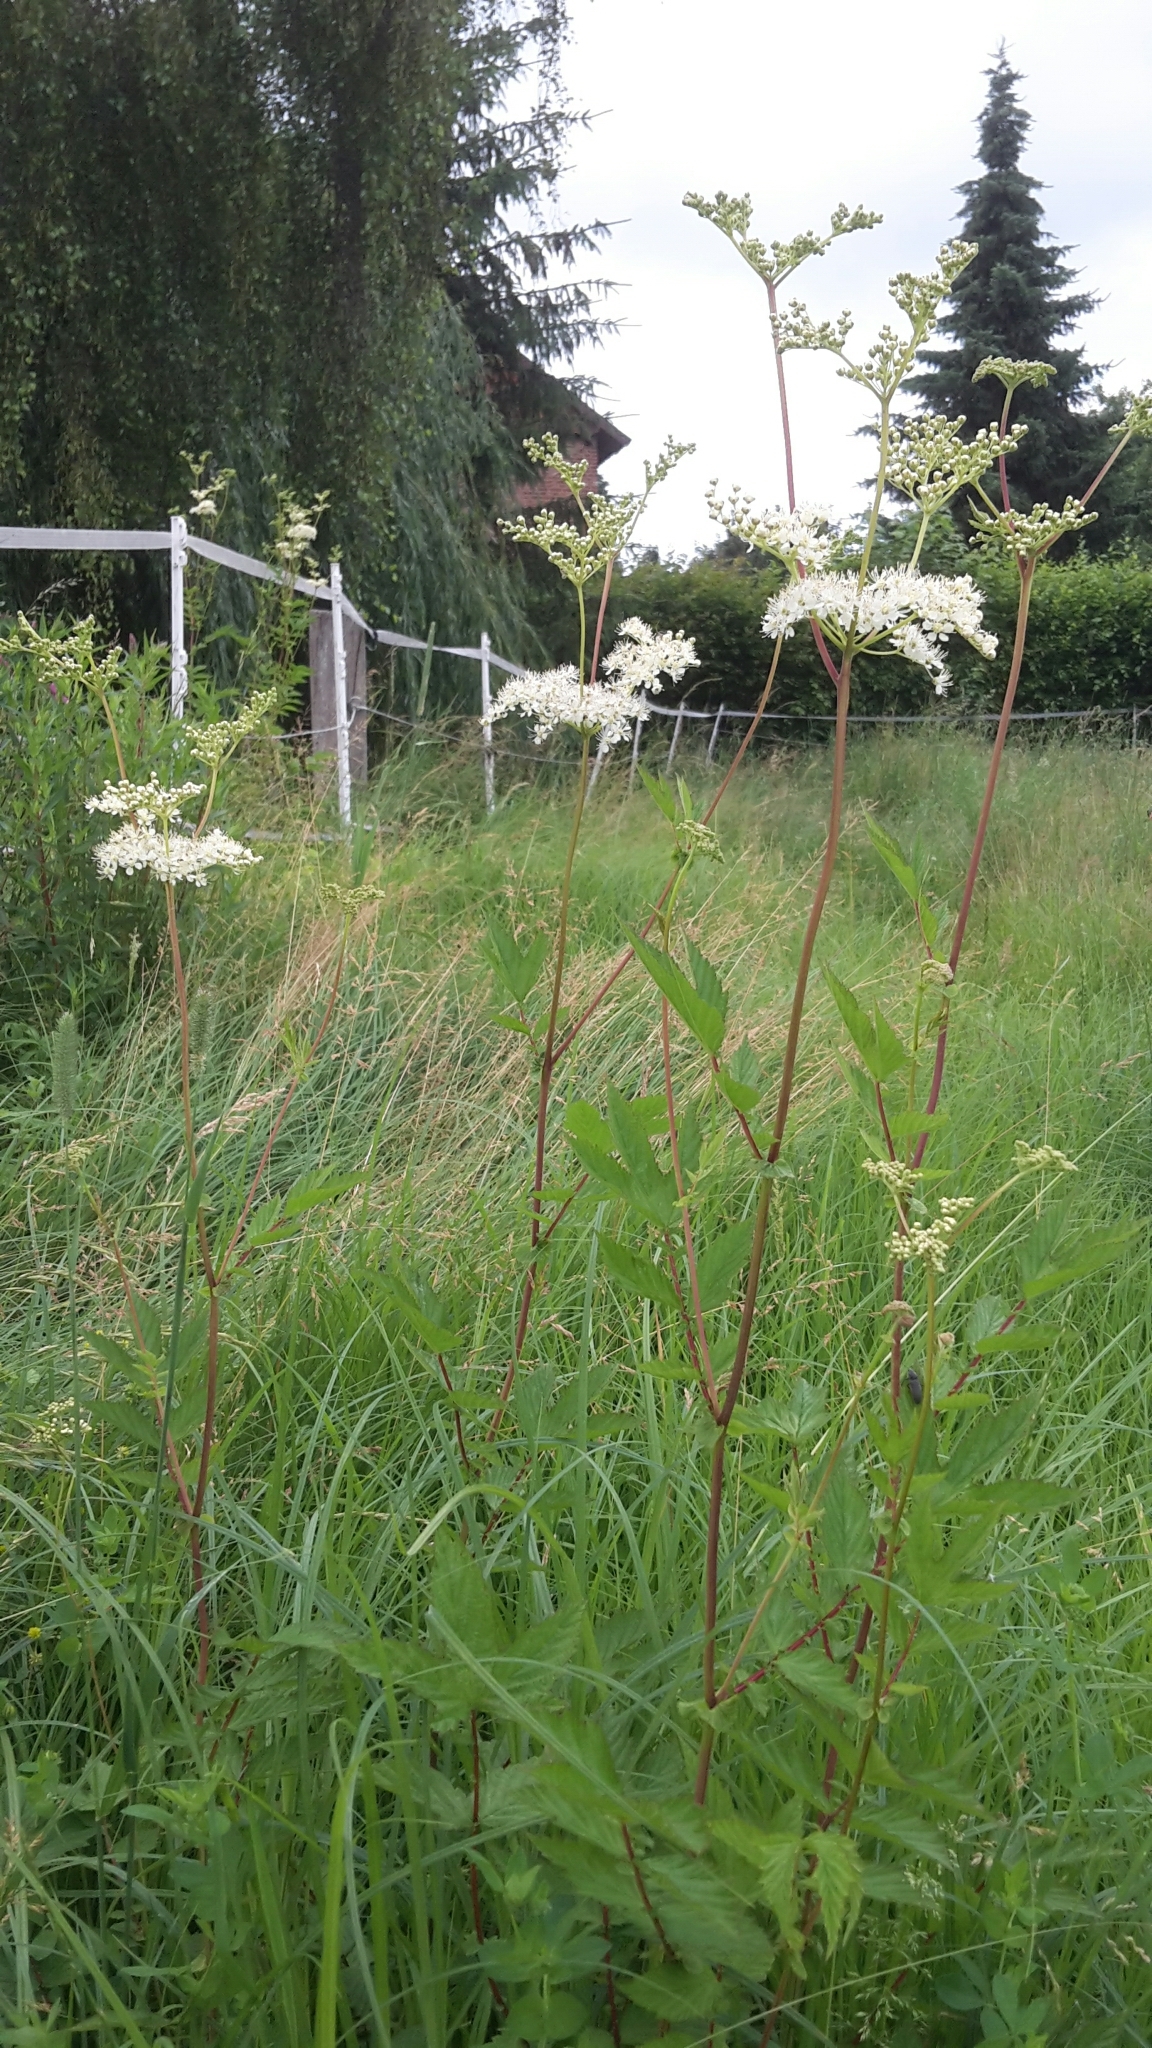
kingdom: Plantae
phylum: Tracheophyta
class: Magnoliopsida
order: Rosales
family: Rosaceae
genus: Filipendula
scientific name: Filipendula ulmaria
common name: Meadowsweet
